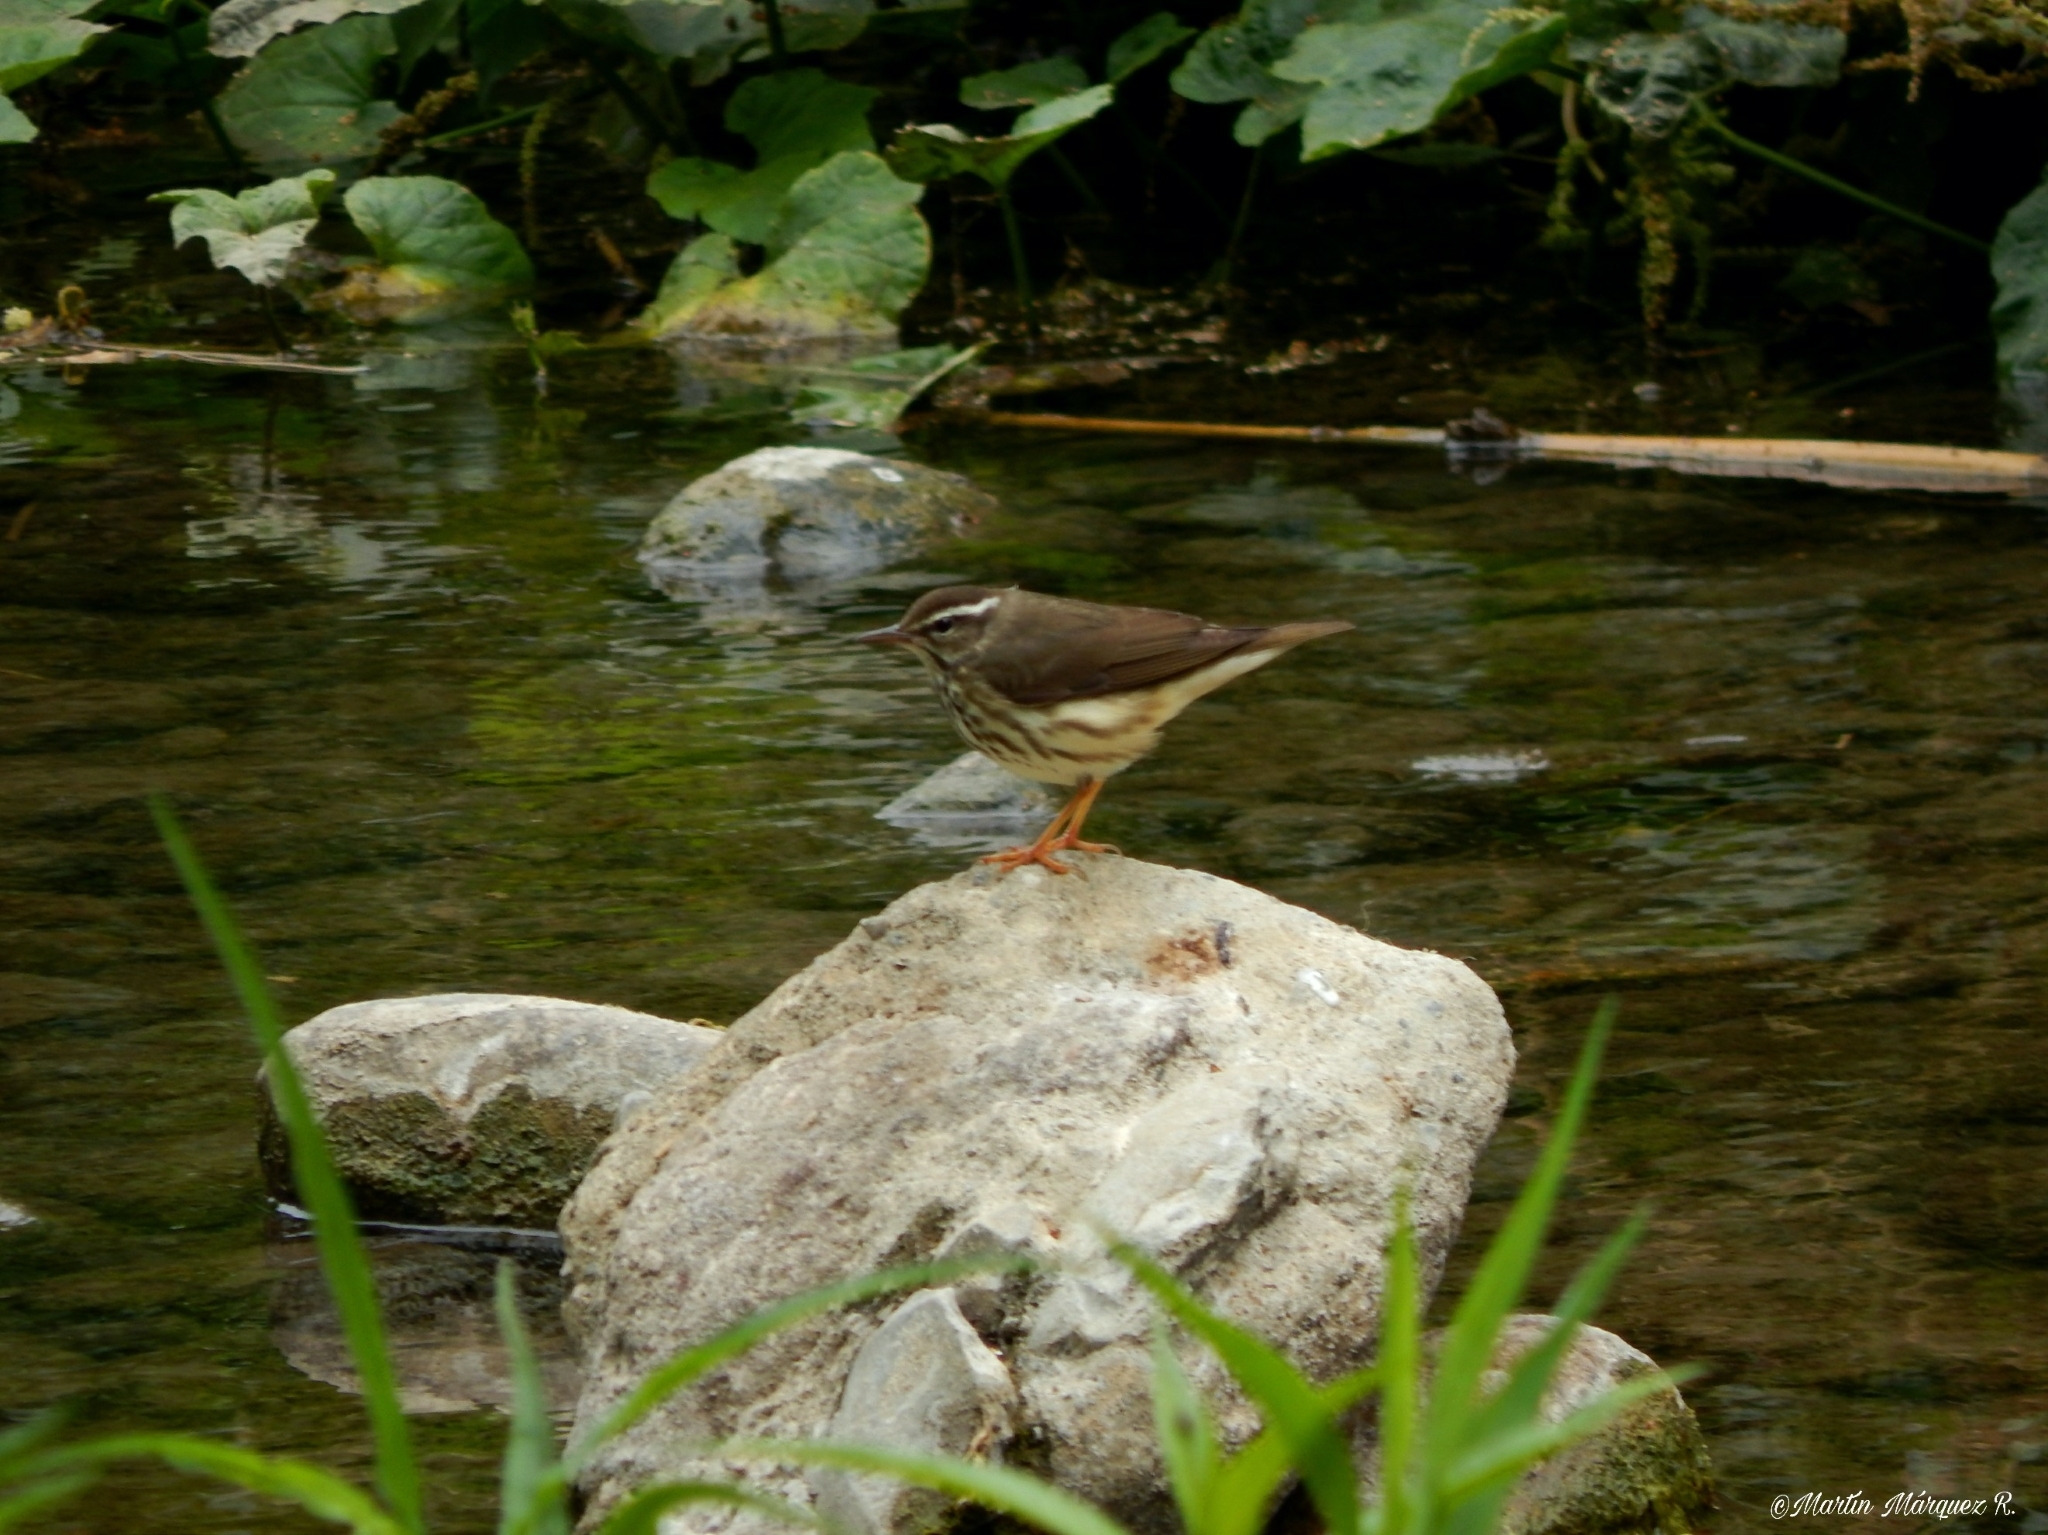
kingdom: Animalia
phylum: Chordata
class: Aves
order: Passeriformes
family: Parulidae
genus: Parkesia
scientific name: Parkesia motacilla
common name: Louisiana waterthrush
